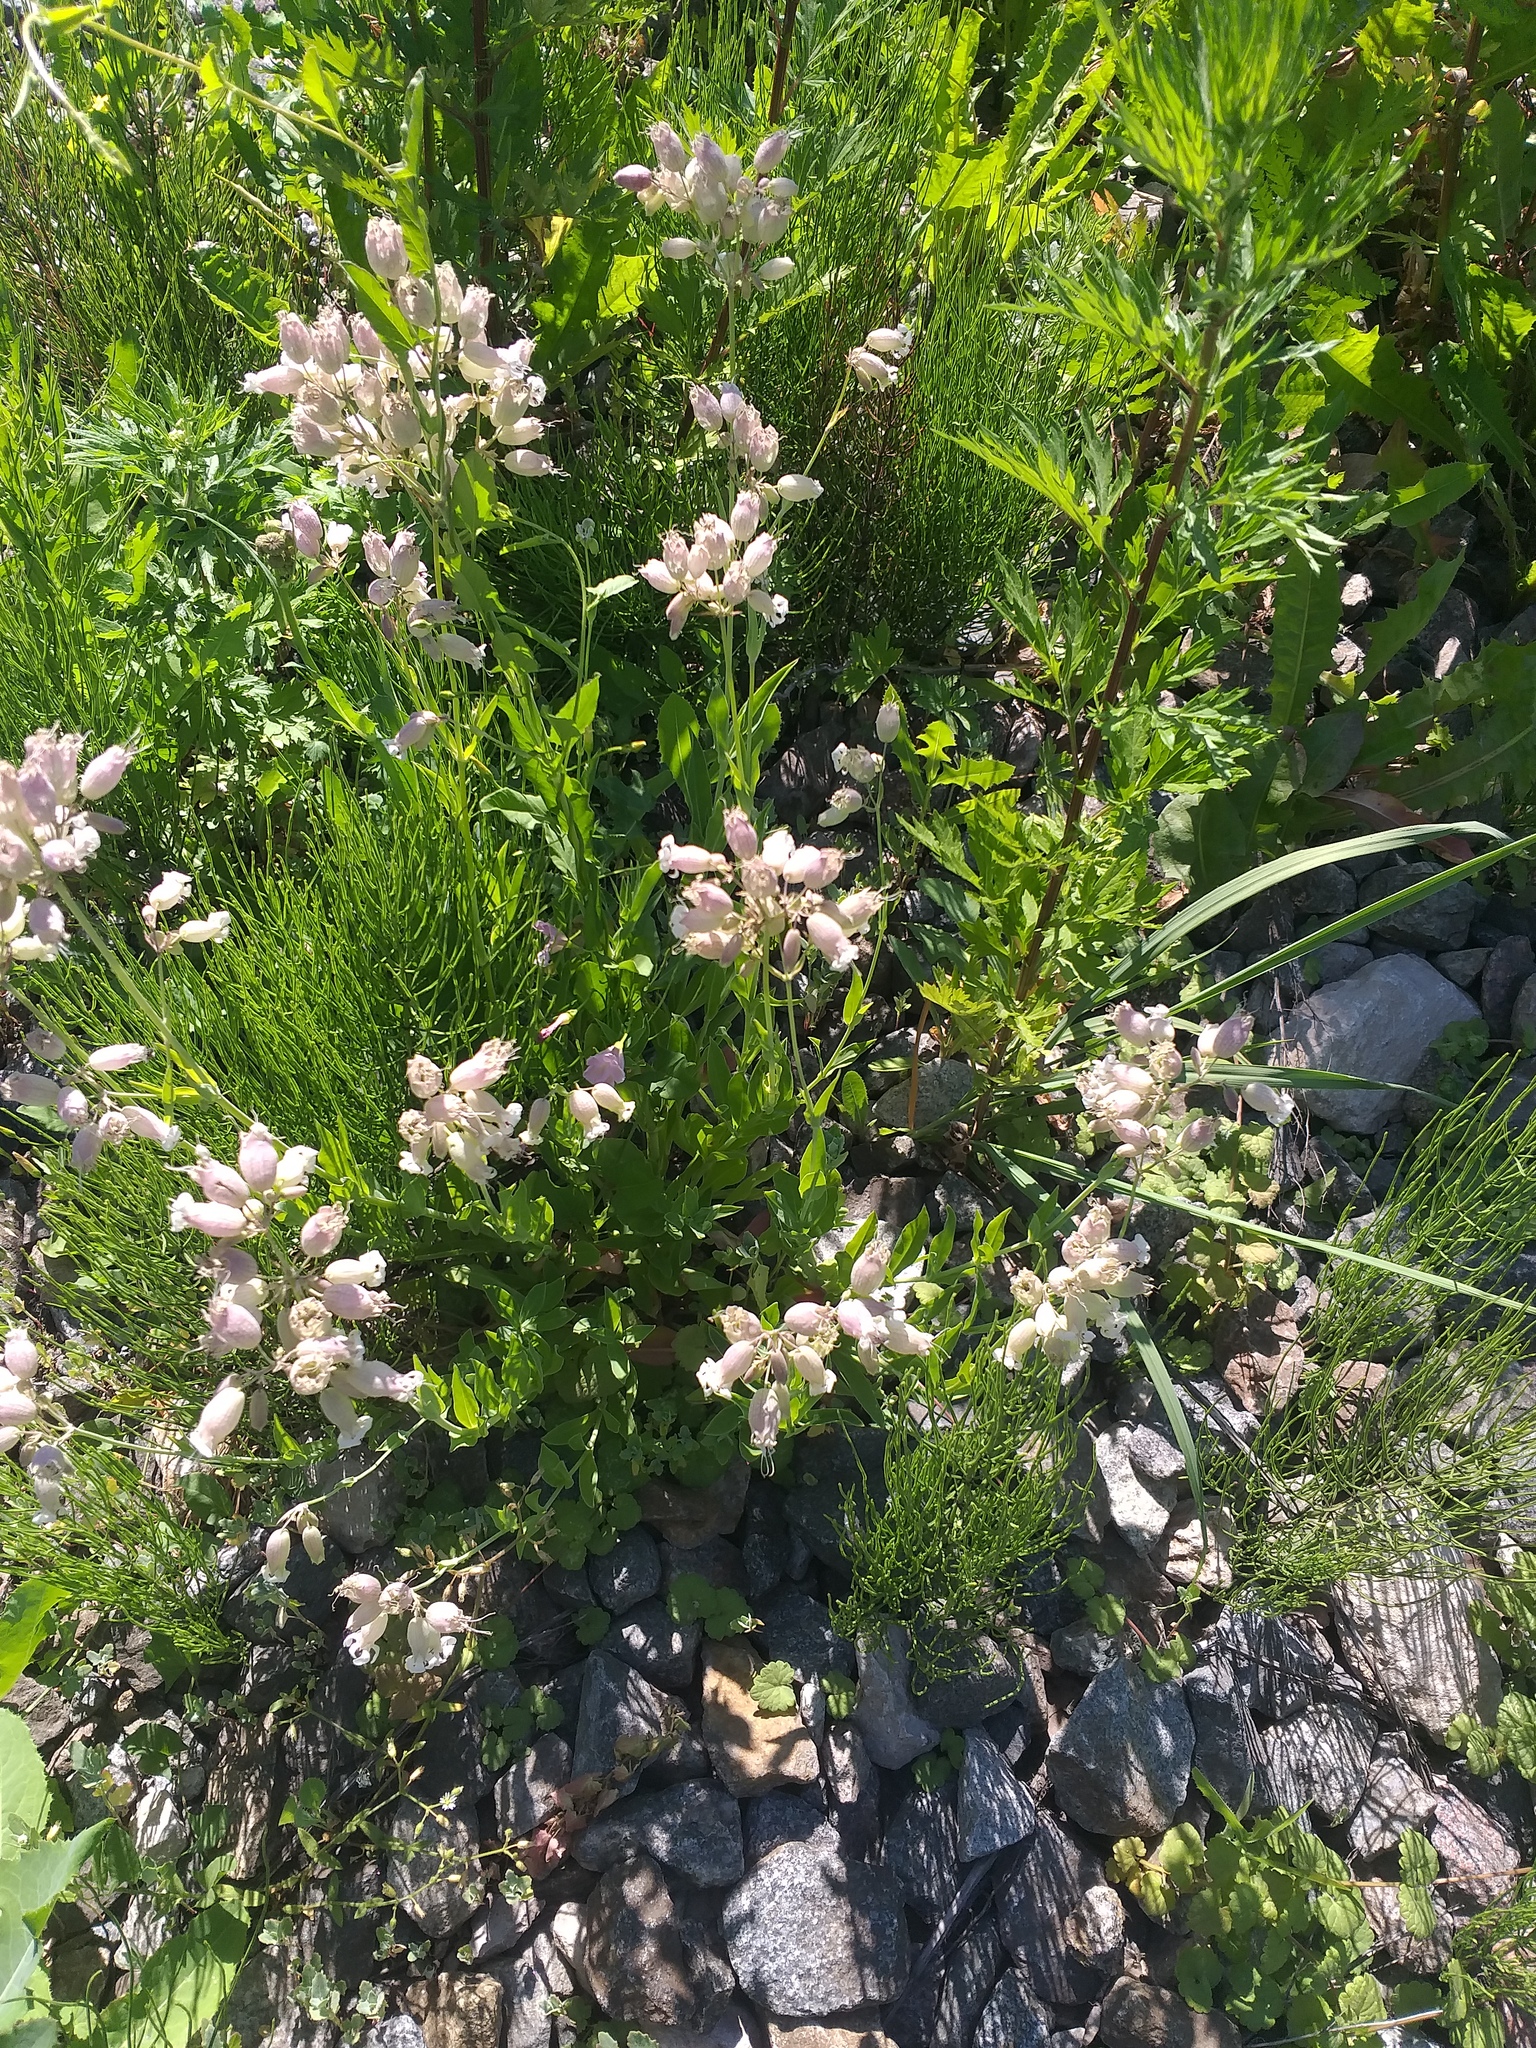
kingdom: Plantae
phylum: Tracheophyta
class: Magnoliopsida
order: Caryophyllales
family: Caryophyllaceae
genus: Silene
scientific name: Silene vulgaris
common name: Bladder campion
